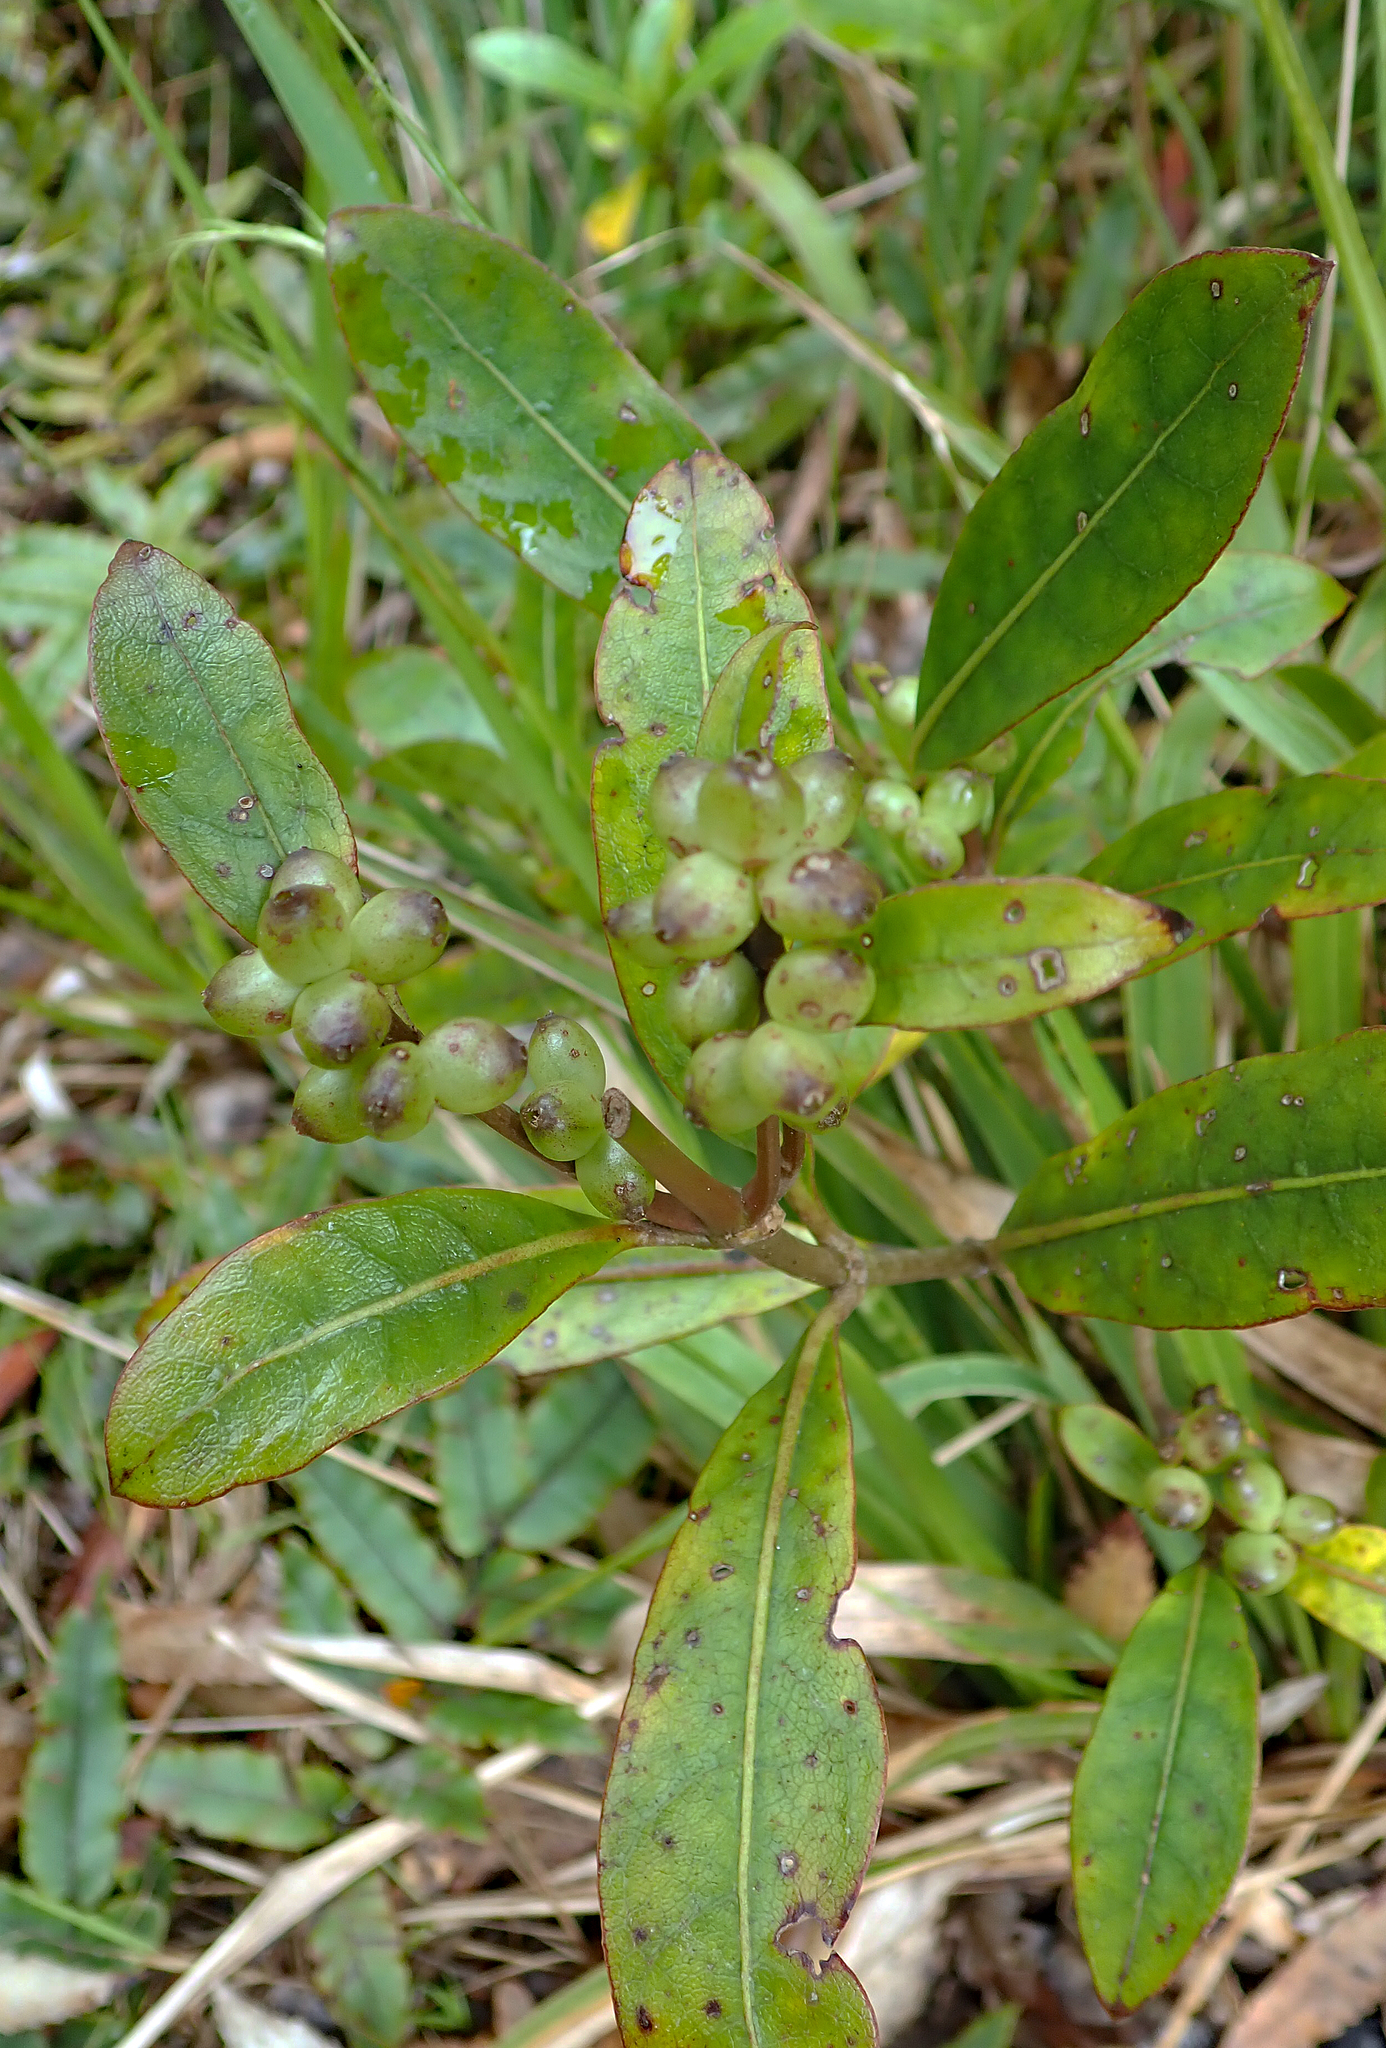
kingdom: Plantae
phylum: Tracheophyta
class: Magnoliopsida
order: Gentianales
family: Rubiaceae
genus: Coprosma
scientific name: Coprosma dodonaeifolia
